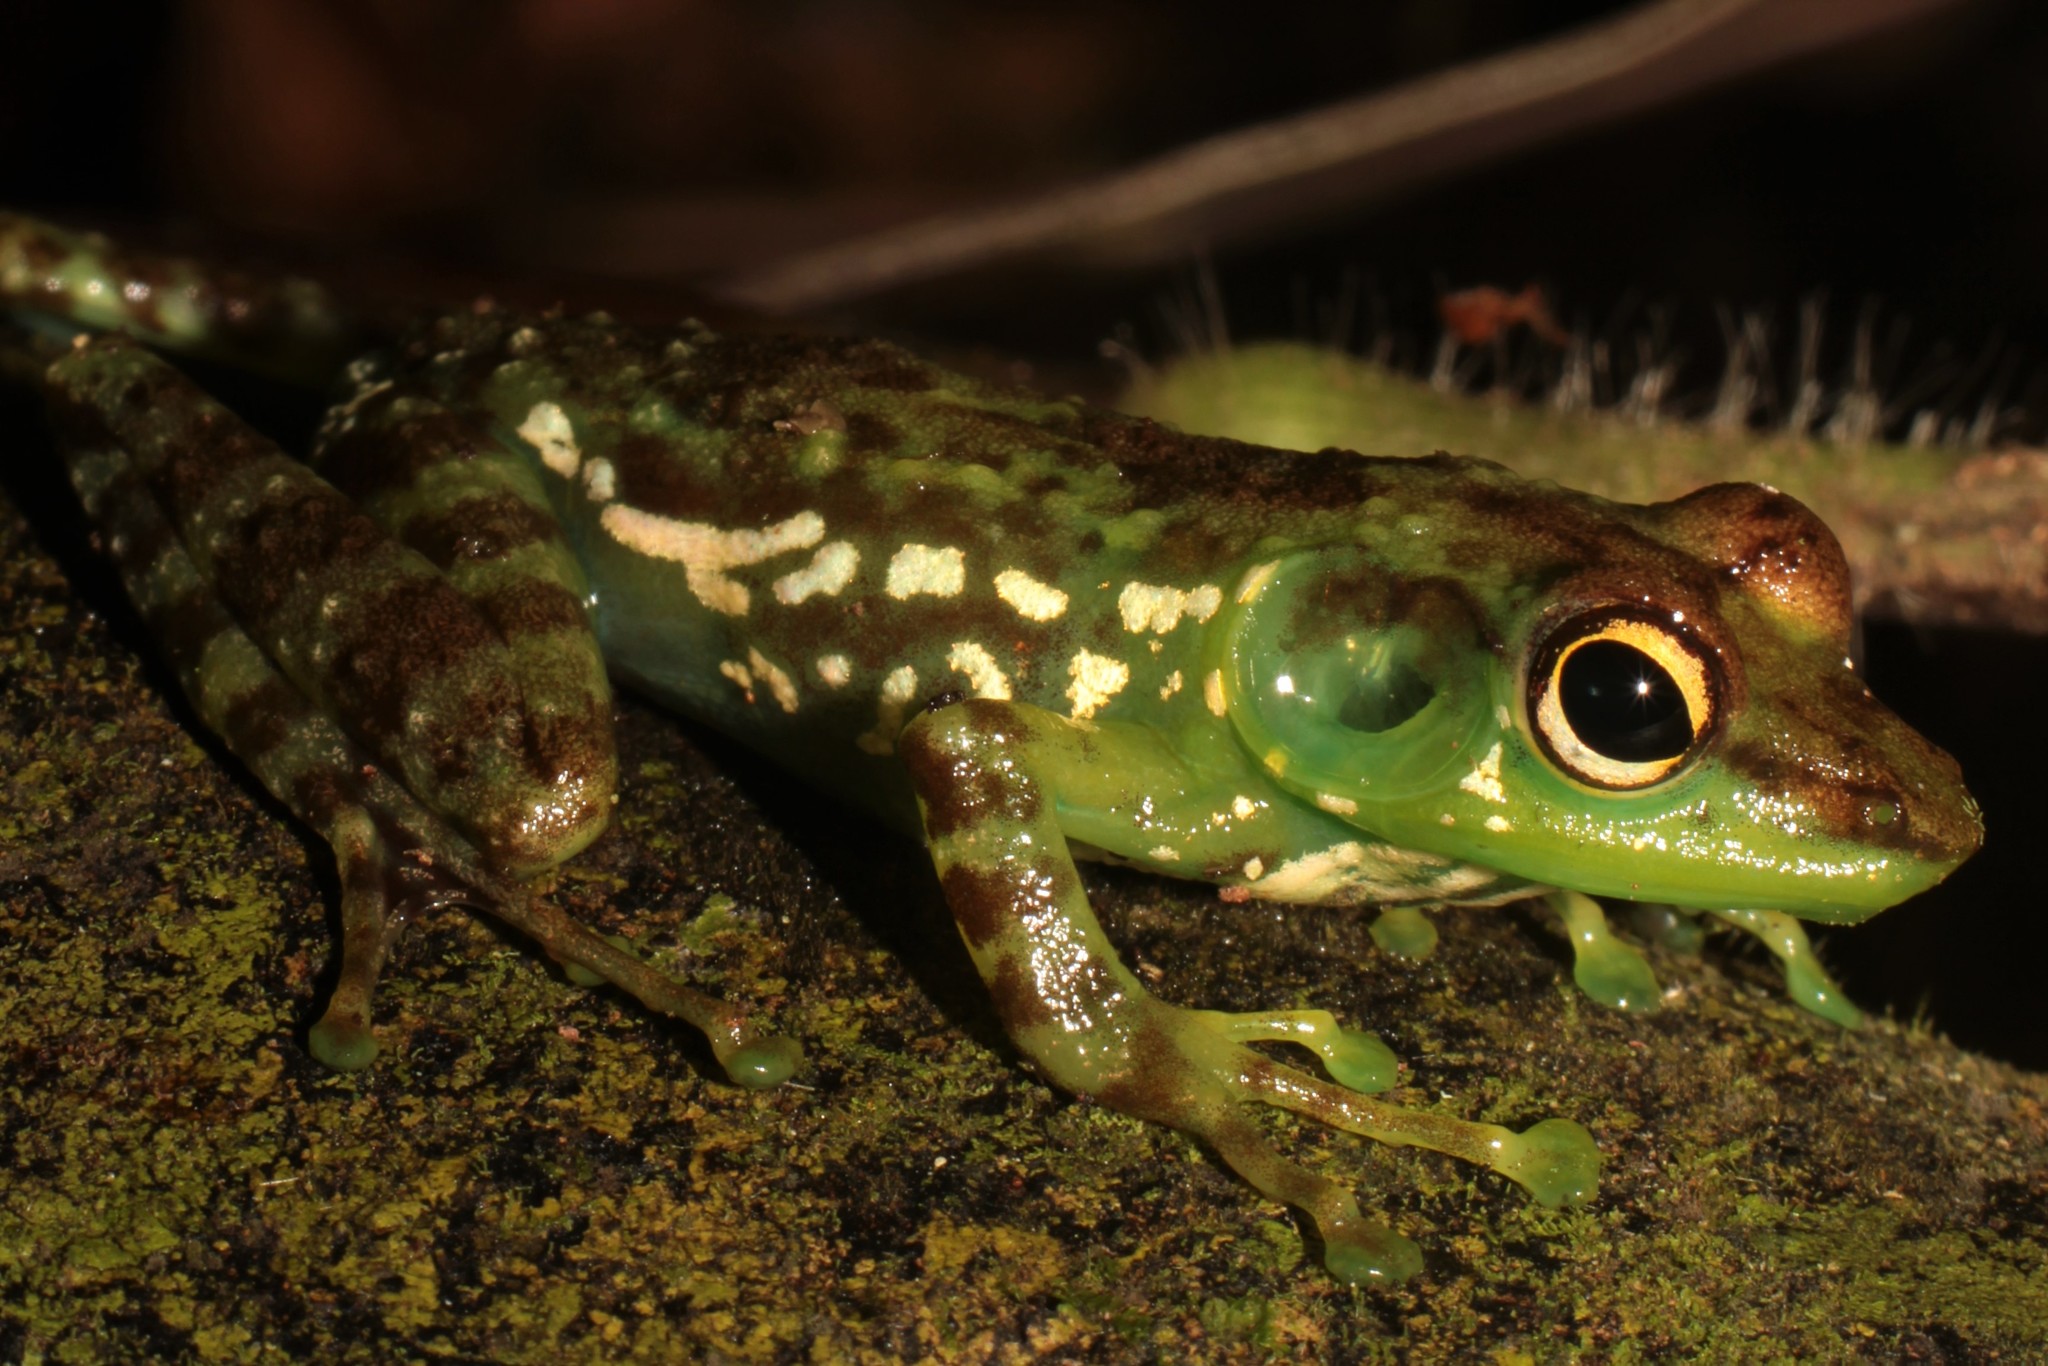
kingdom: Animalia
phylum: Chordata
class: Amphibia
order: Anura
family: Mantellidae
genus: Mantidactylus
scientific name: Mantidactylus argenteus
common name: Folohy madagascar frog
